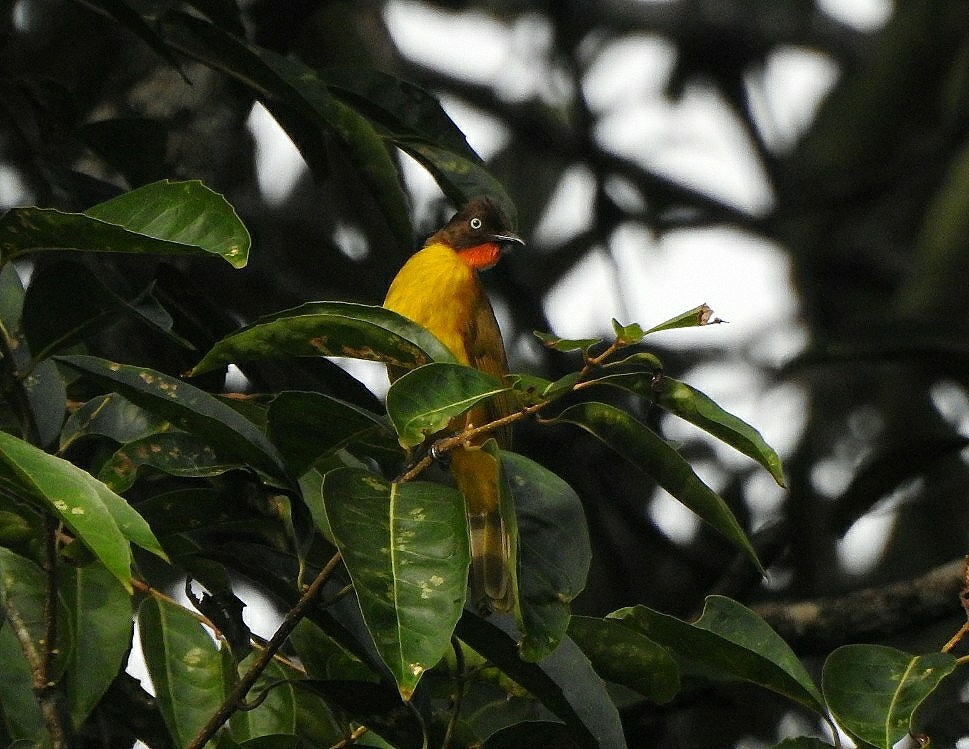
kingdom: Animalia
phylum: Chordata
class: Aves
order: Passeriformes
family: Pycnonotidae
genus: Pycnonotus
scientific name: Pycnonotus gularis
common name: Flame-throated bulbul
